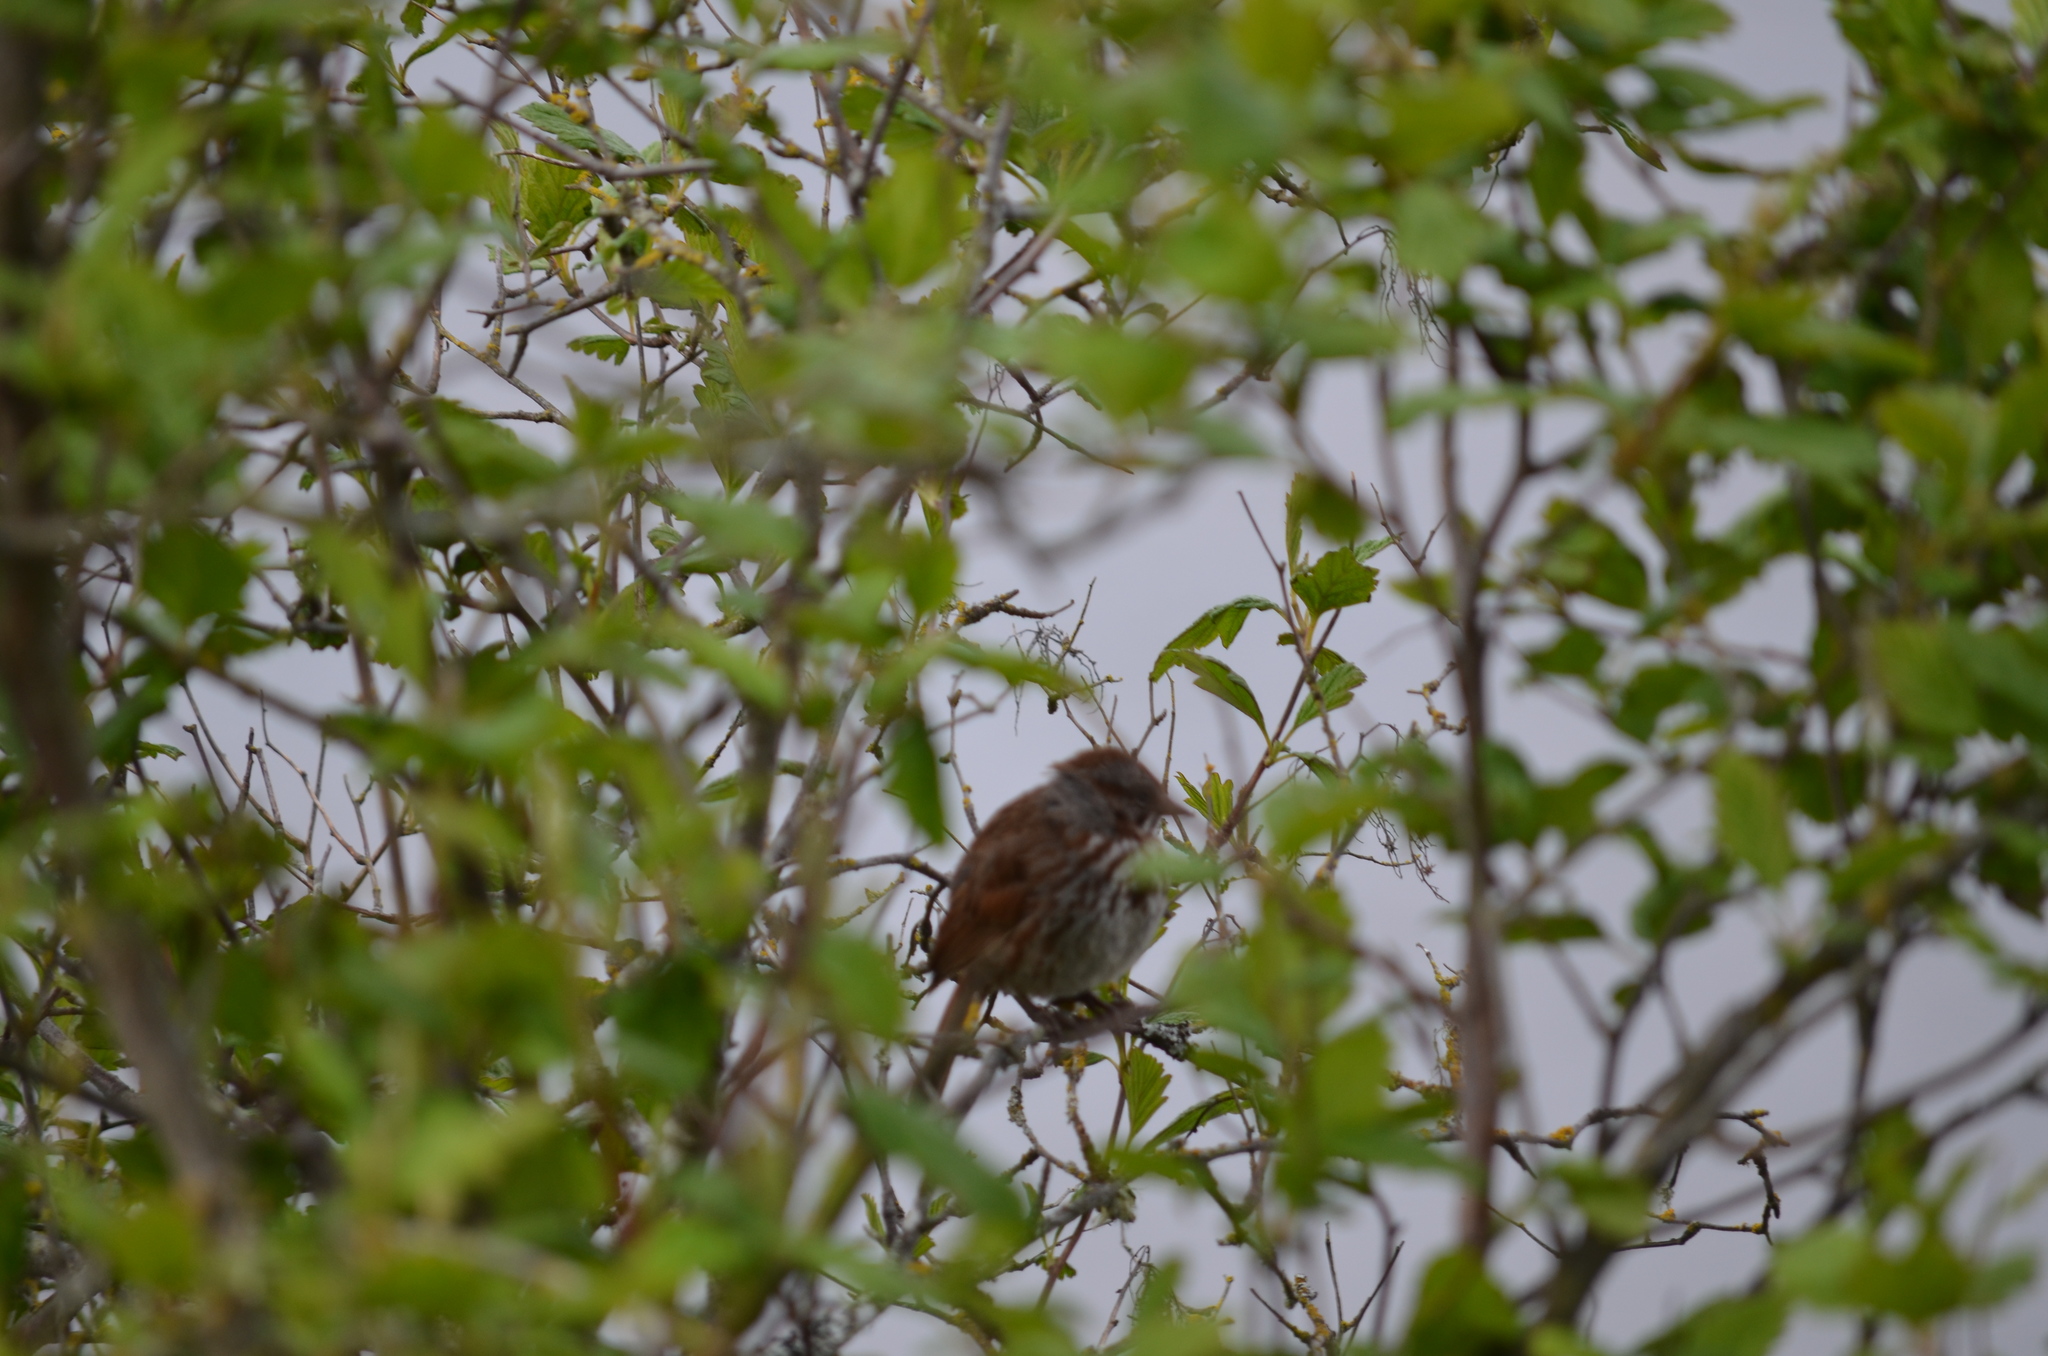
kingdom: Animalia
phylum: Chordata
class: Aves
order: Passeriformes
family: Passerellidae
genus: Melospiza
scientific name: Melospiza melodia
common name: Song sparrow
